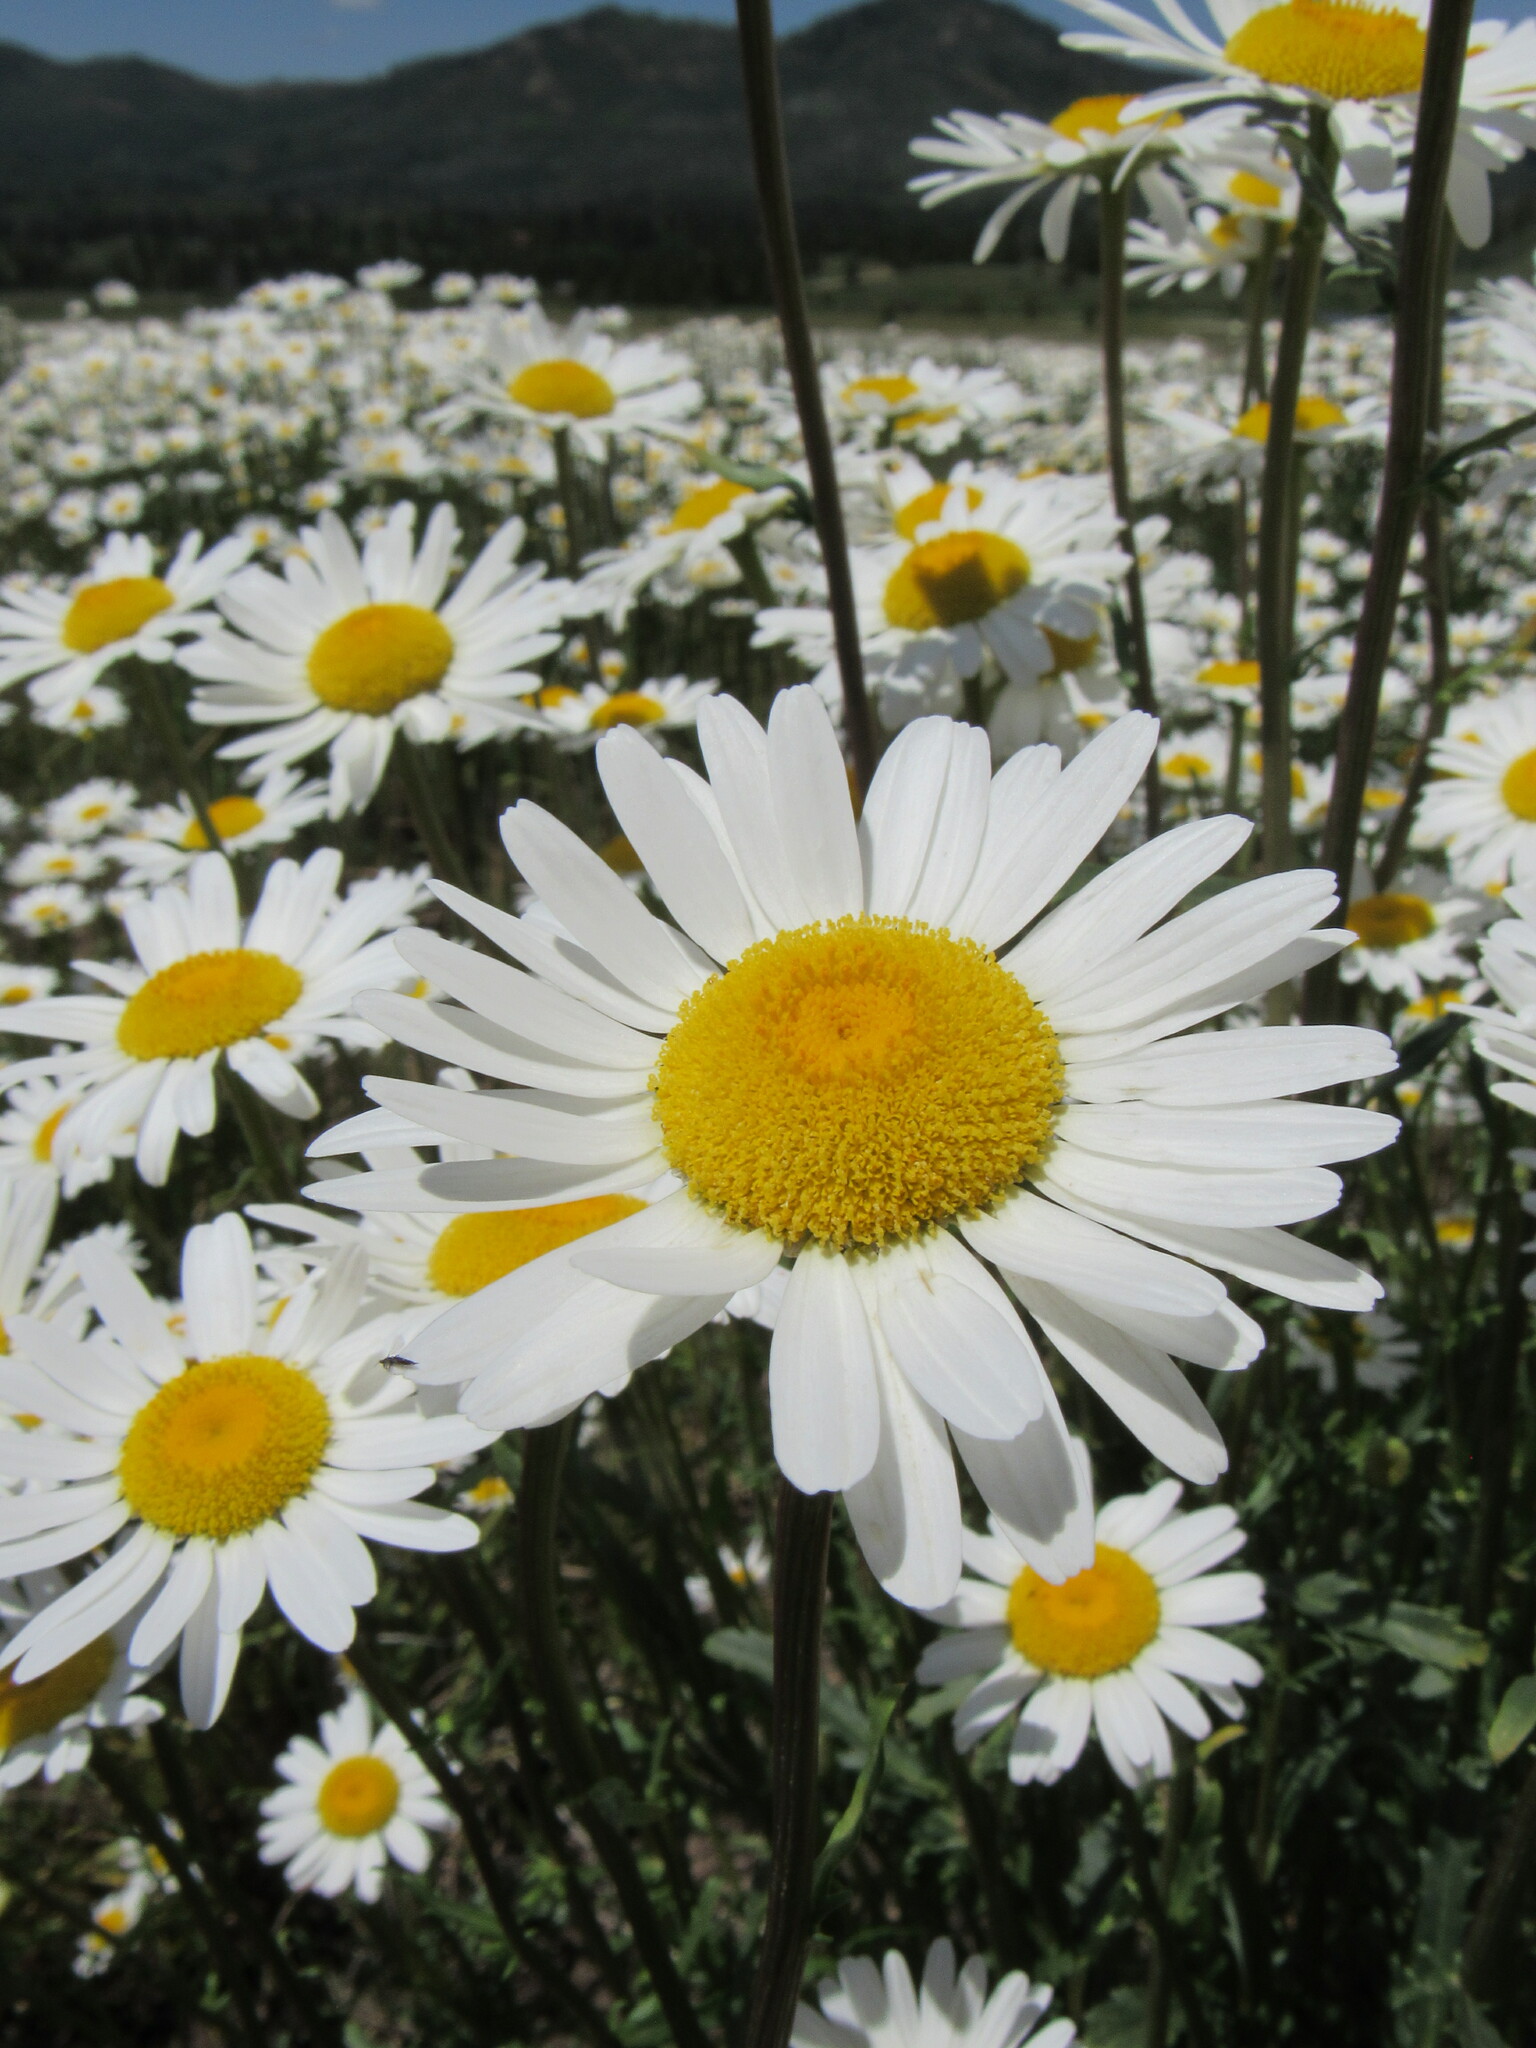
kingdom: Plantae
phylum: Tracheophyta
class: Magnoliopsida
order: Asterales
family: Asteraceae
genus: Leucanthemum
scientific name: Leucanthemum vulgare
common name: Oxeye daisy
